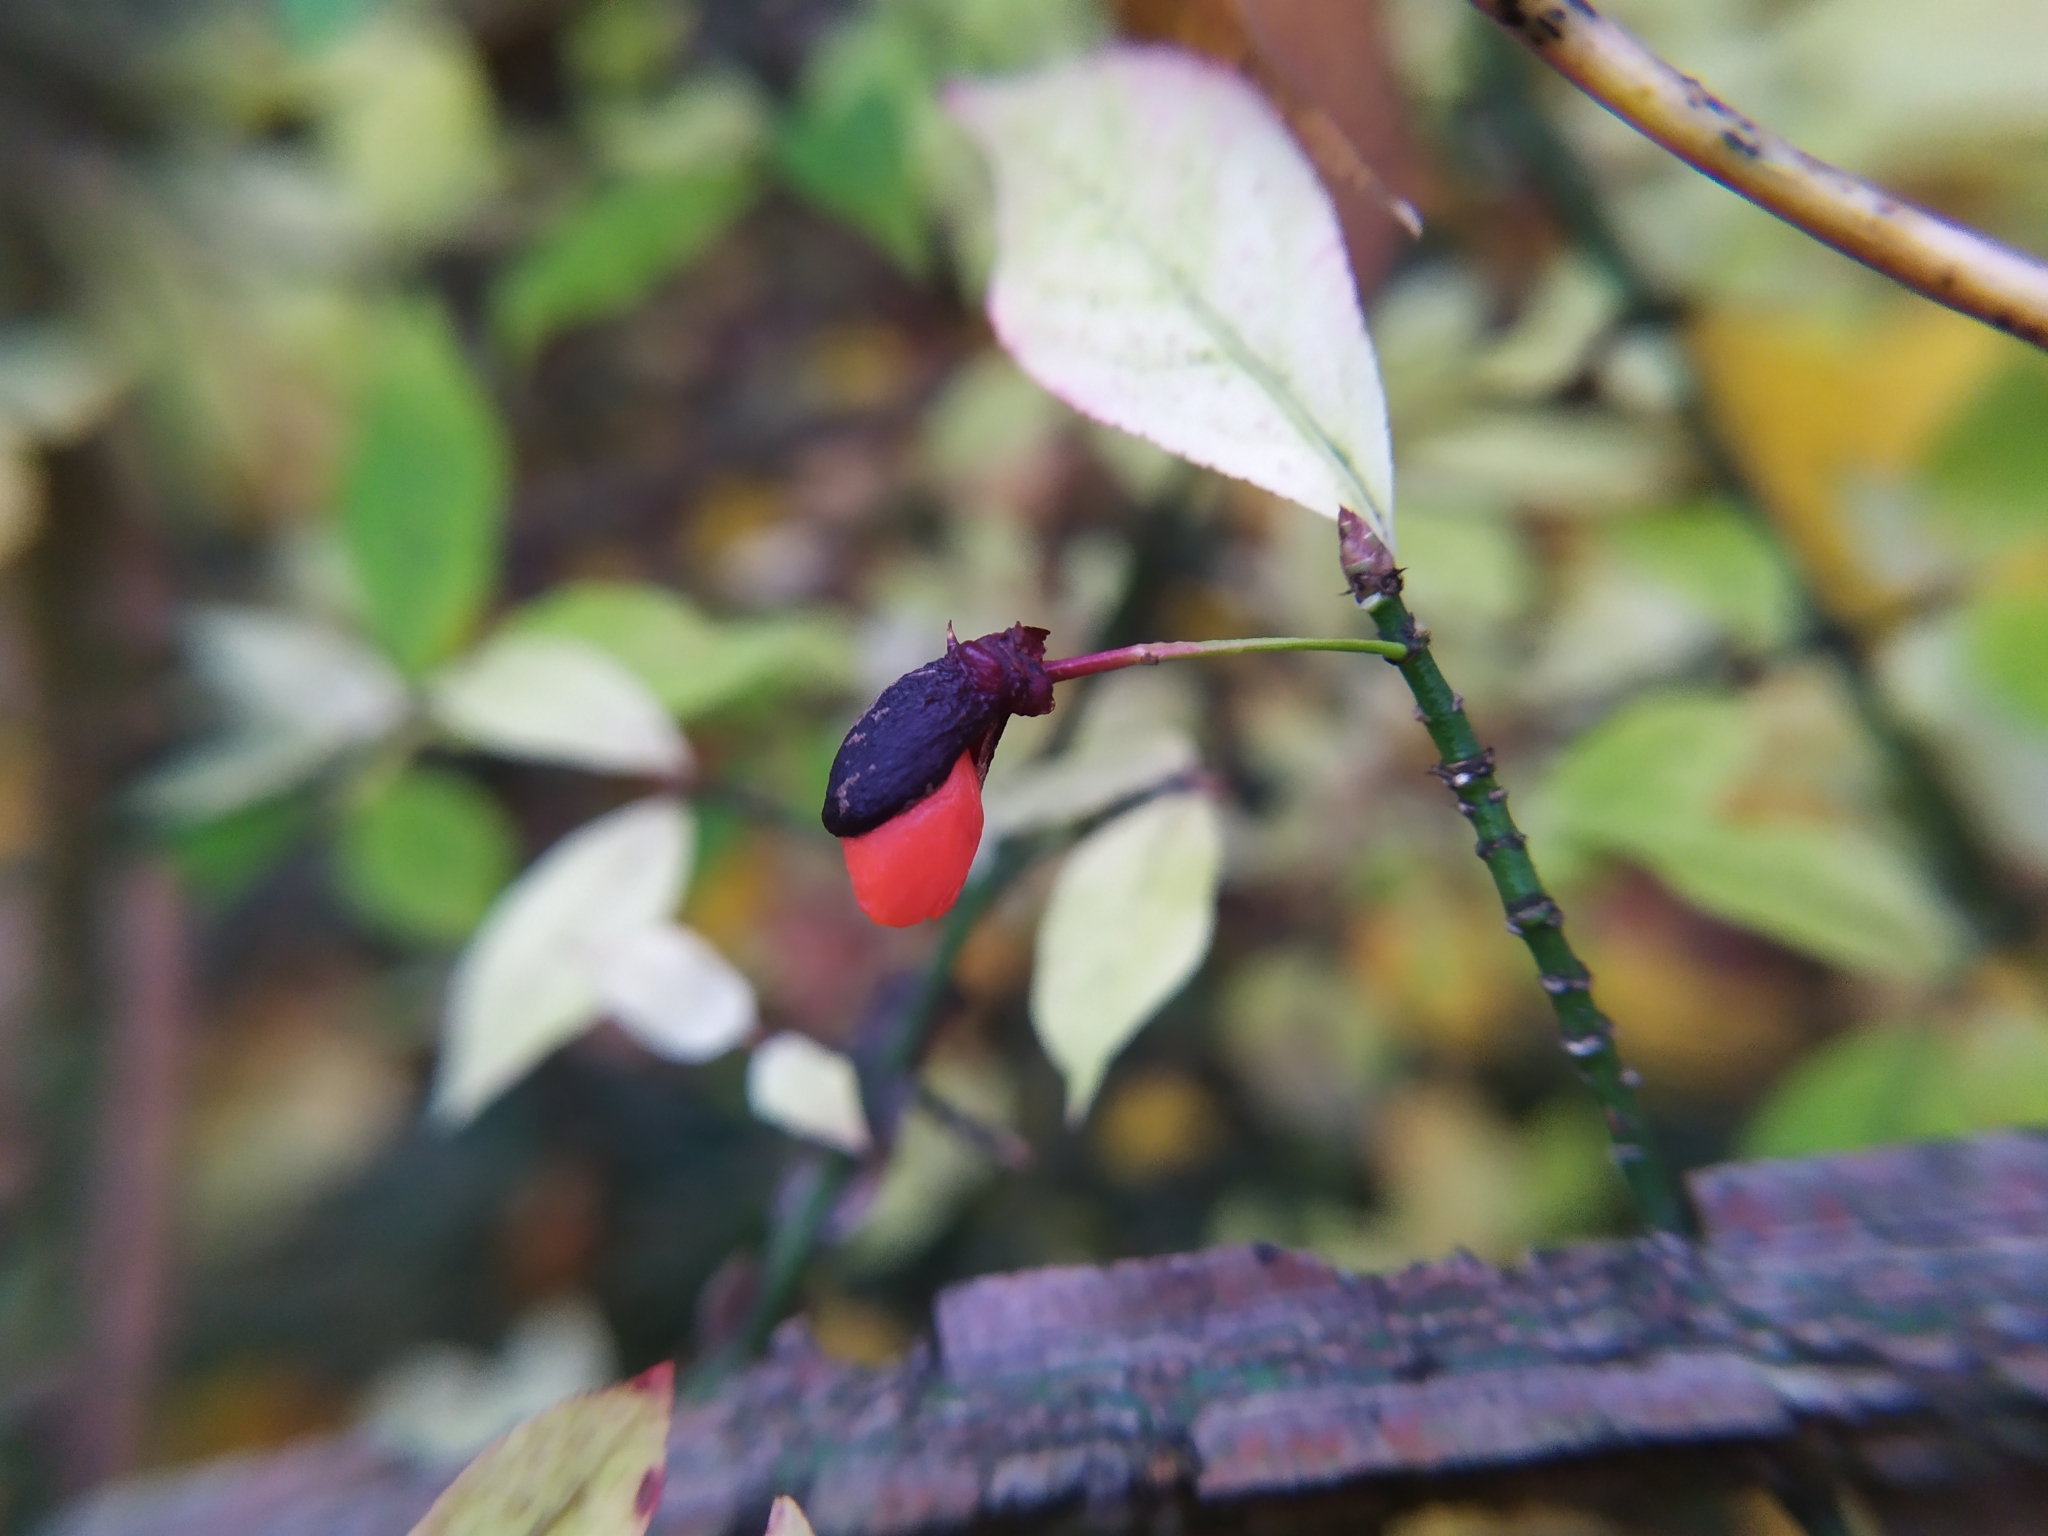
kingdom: Plantae
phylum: Tracheophyta
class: Magnoliopsida
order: Celastrales
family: Celastraceae
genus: Euonymus
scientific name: Euonymus alatus
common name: Winged euonymus
